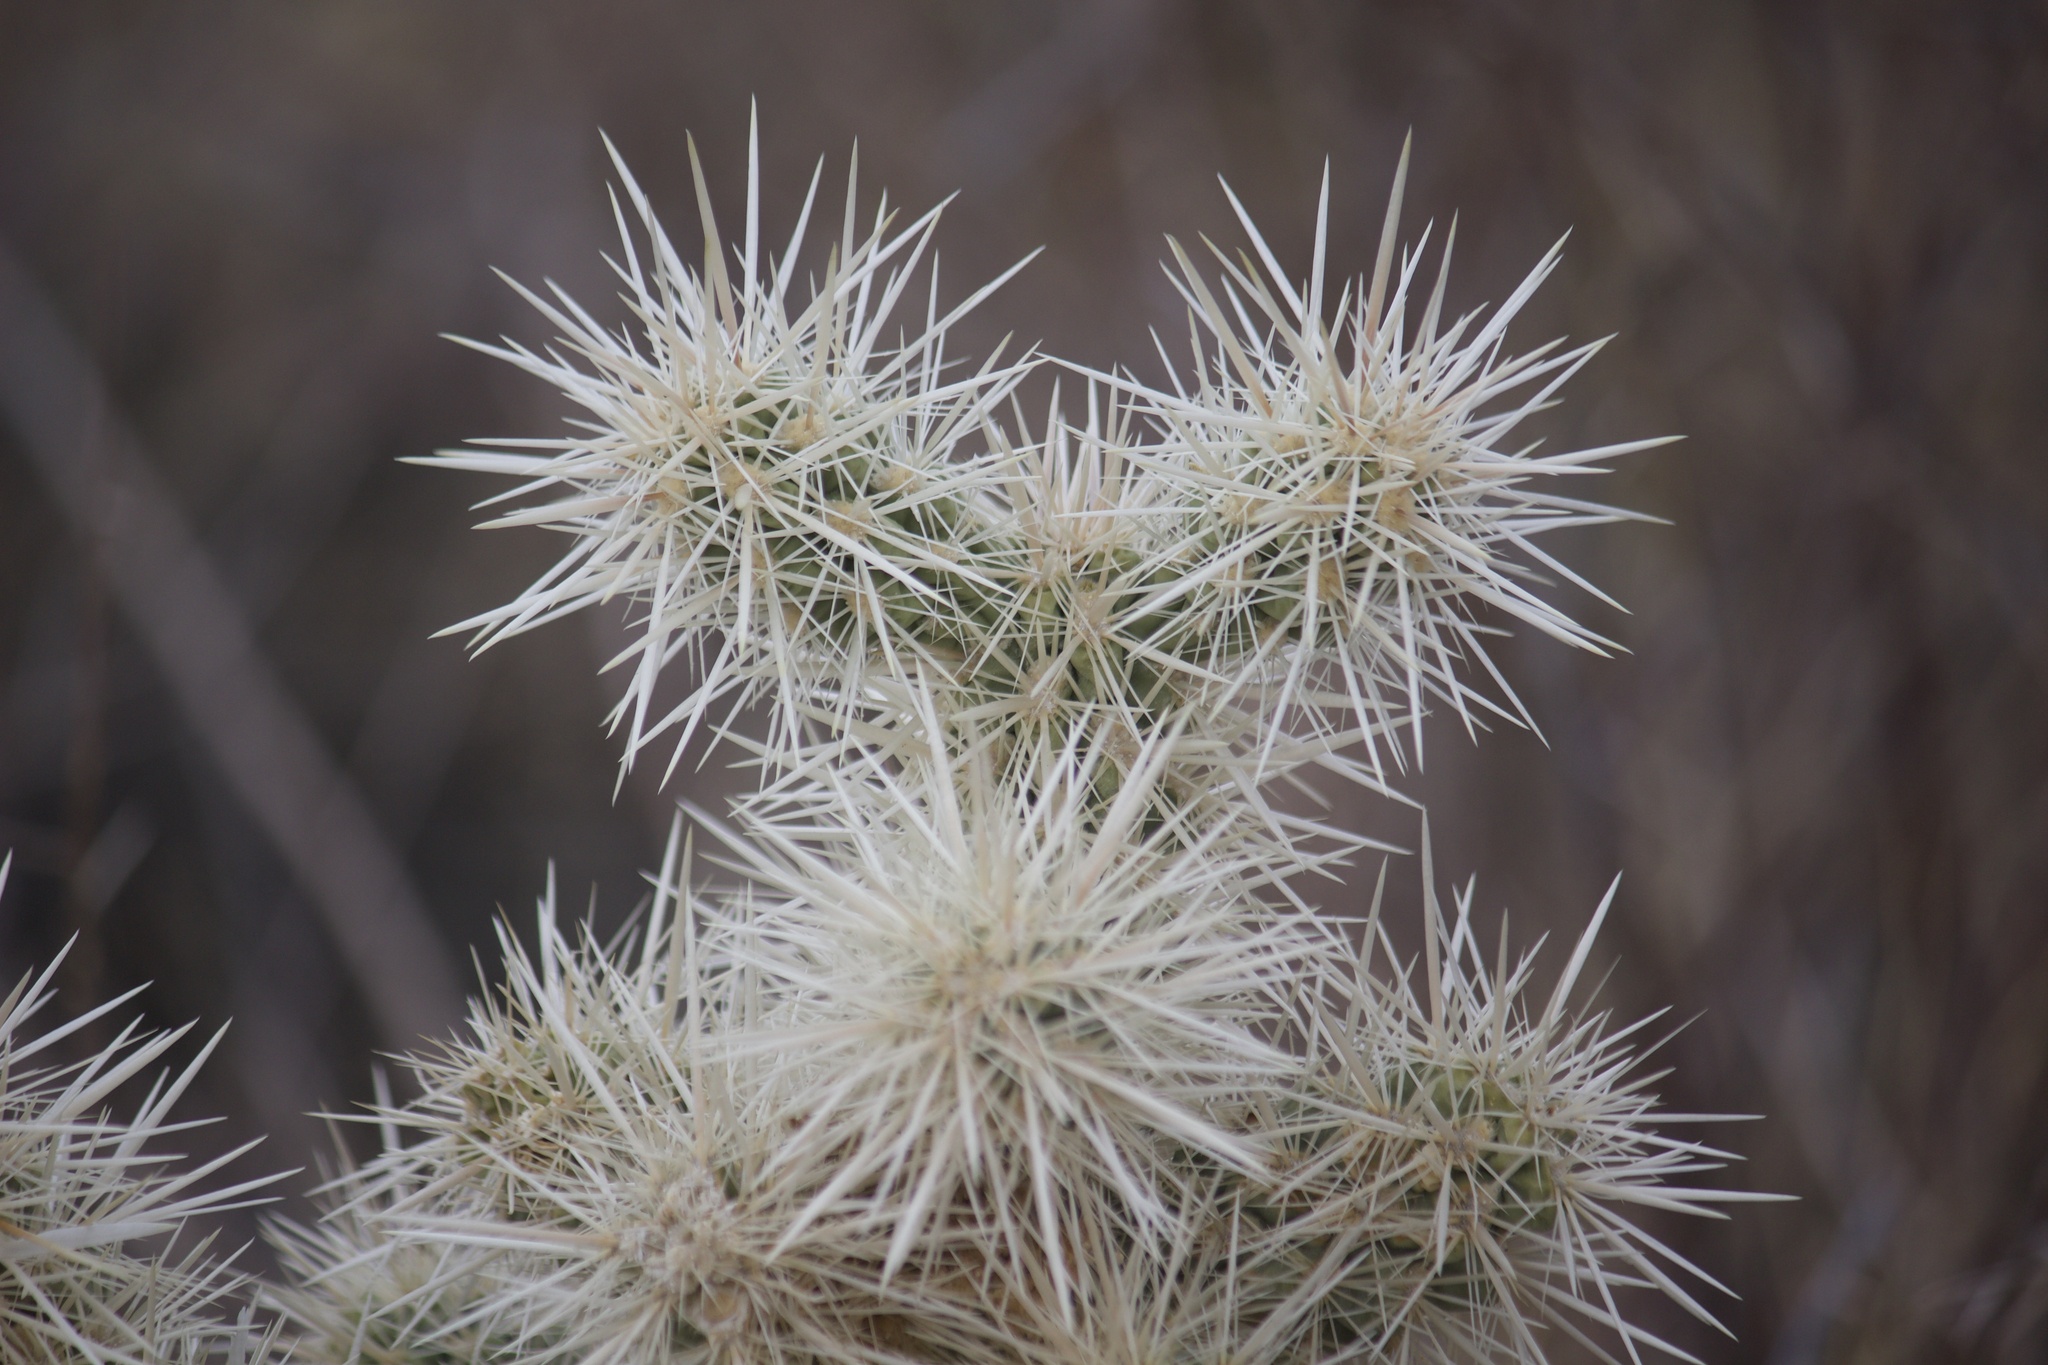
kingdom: Plantae
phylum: Tracheophyta
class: Magnoliopsida
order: Caryophyllales
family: Cactaceae
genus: Cylindropuntia
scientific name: Cylindropuntia echinocarpa
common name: Ground cholla
